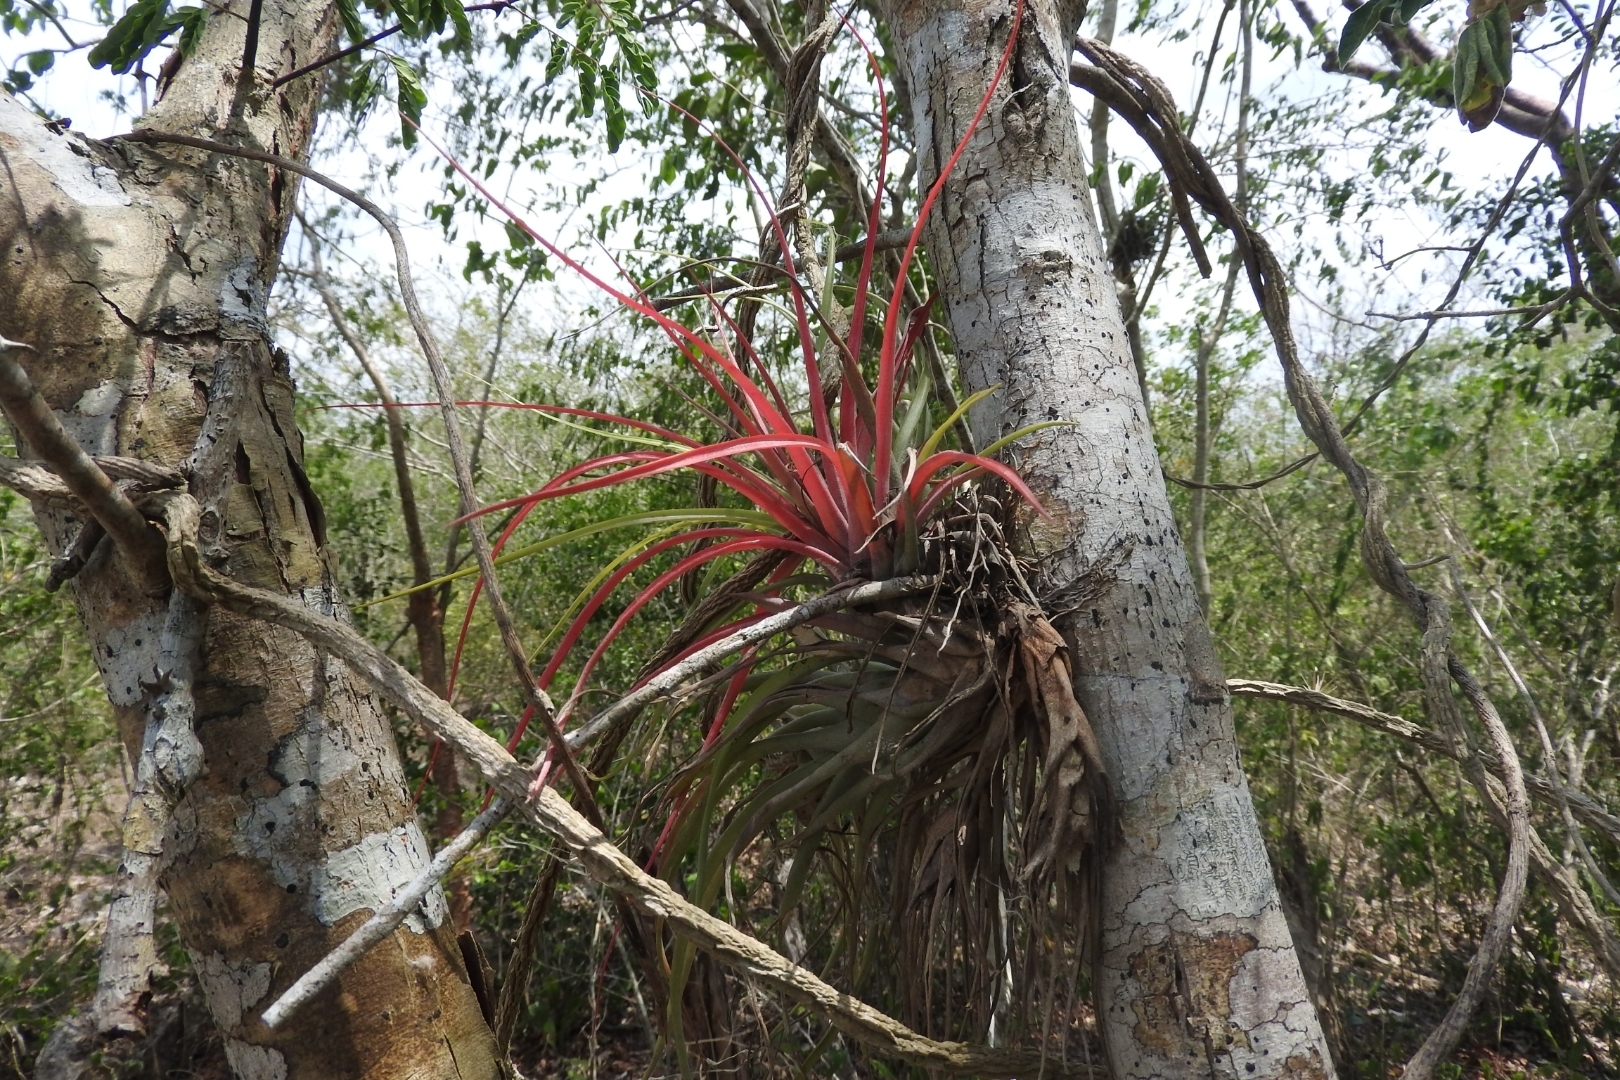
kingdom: Plantae
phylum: Tracheophyta
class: Liliopsida
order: Poales
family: Bromeliaceae
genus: Tillandsia
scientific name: Tillandsia fasciculata
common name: Giant airplant
